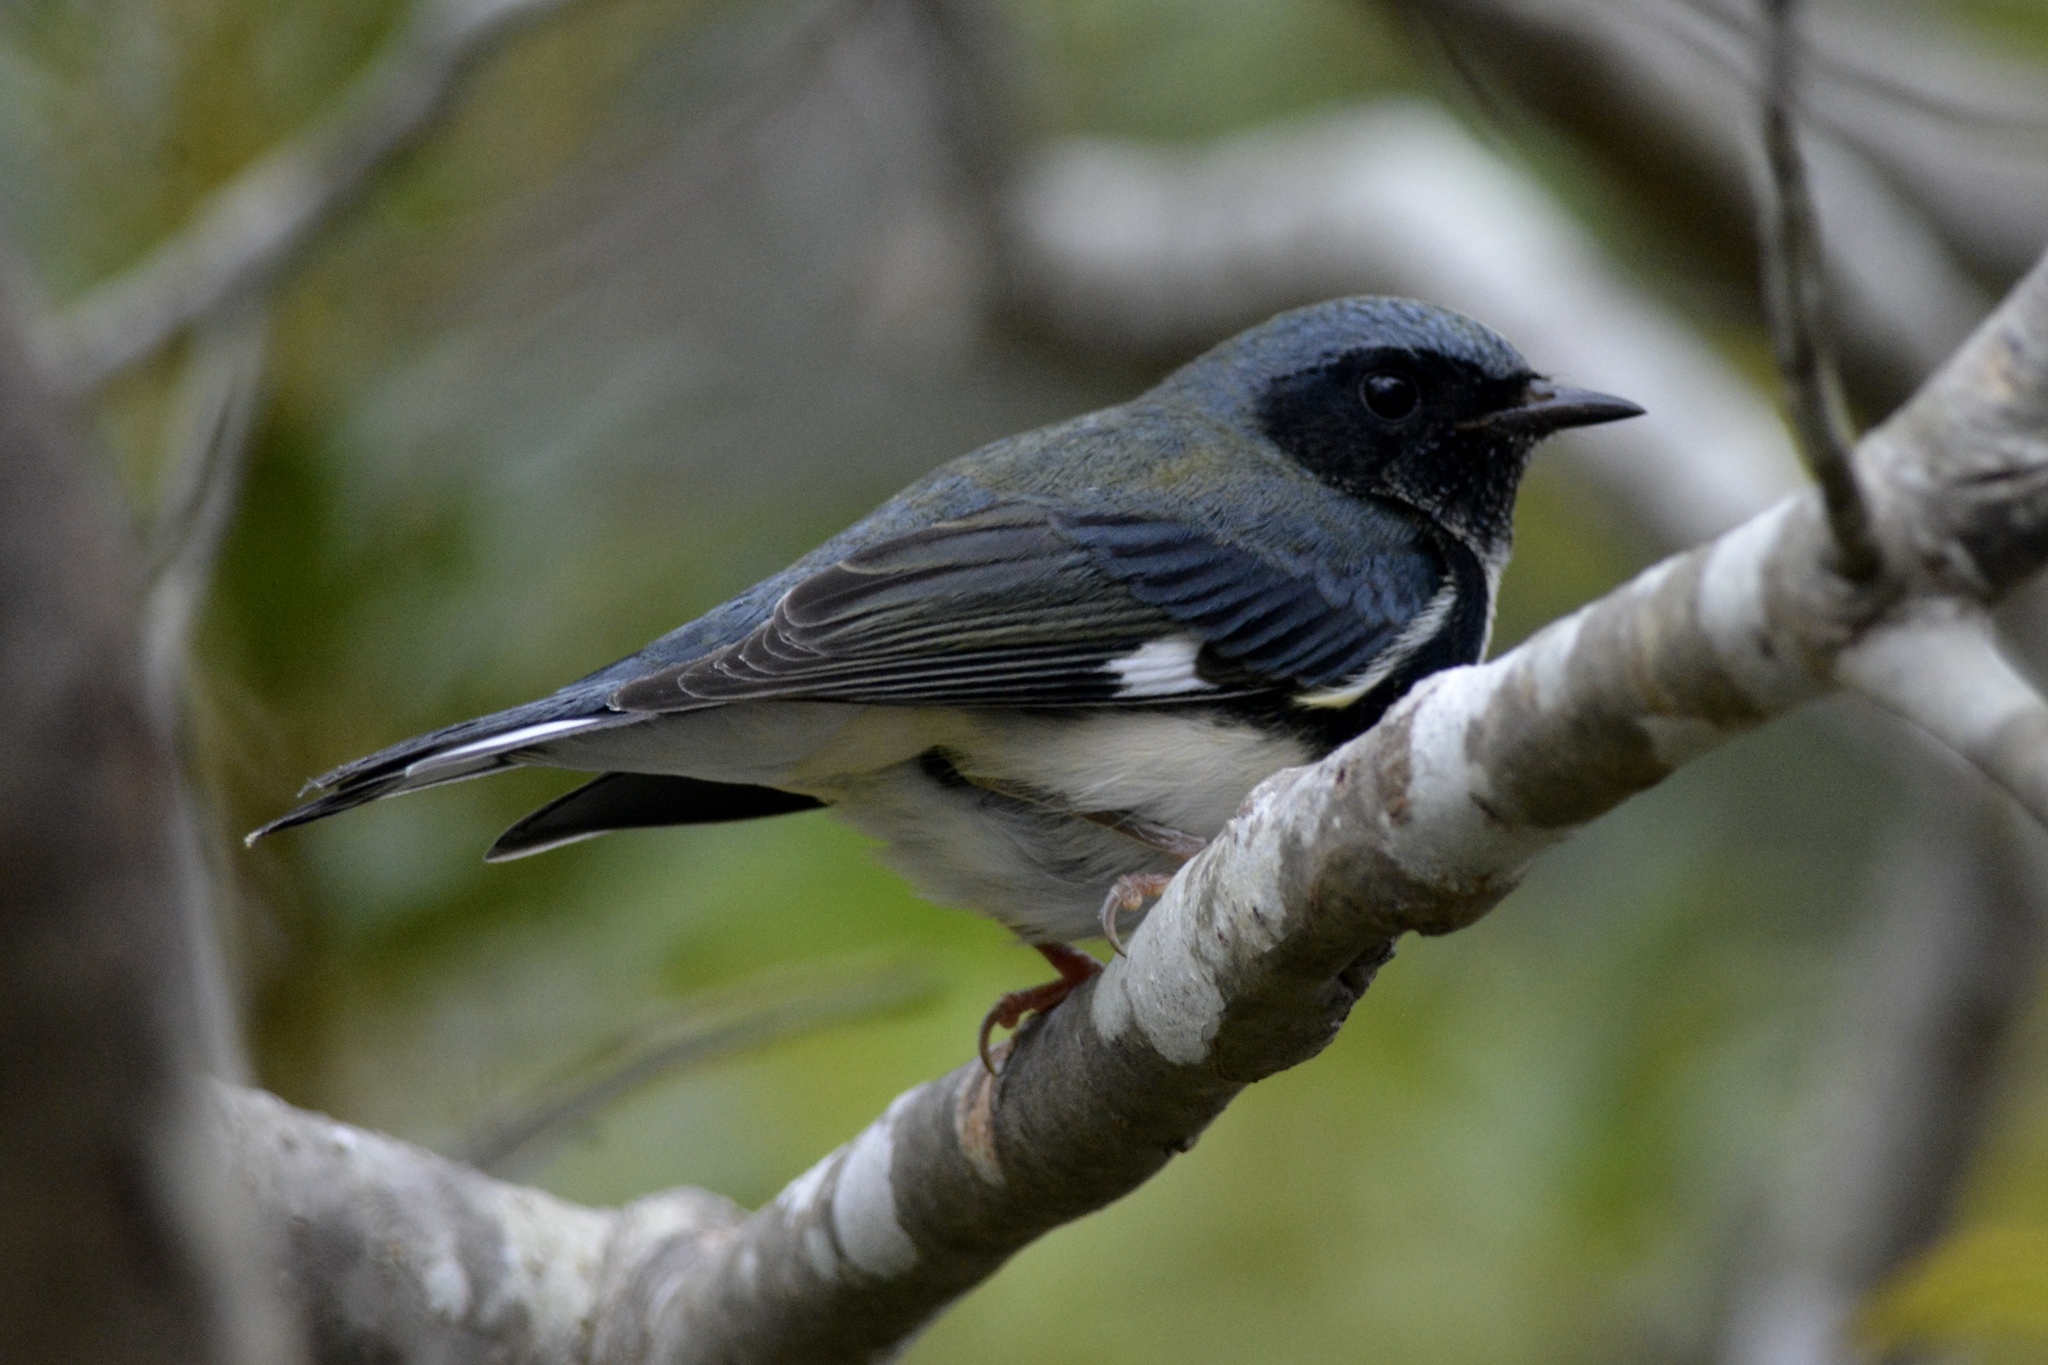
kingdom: Animalia
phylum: Chordata
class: Aves
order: Passeriformes
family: Parulidae
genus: Setophaga
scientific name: Setophaga caerulescens
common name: Black-throated blue warbler
